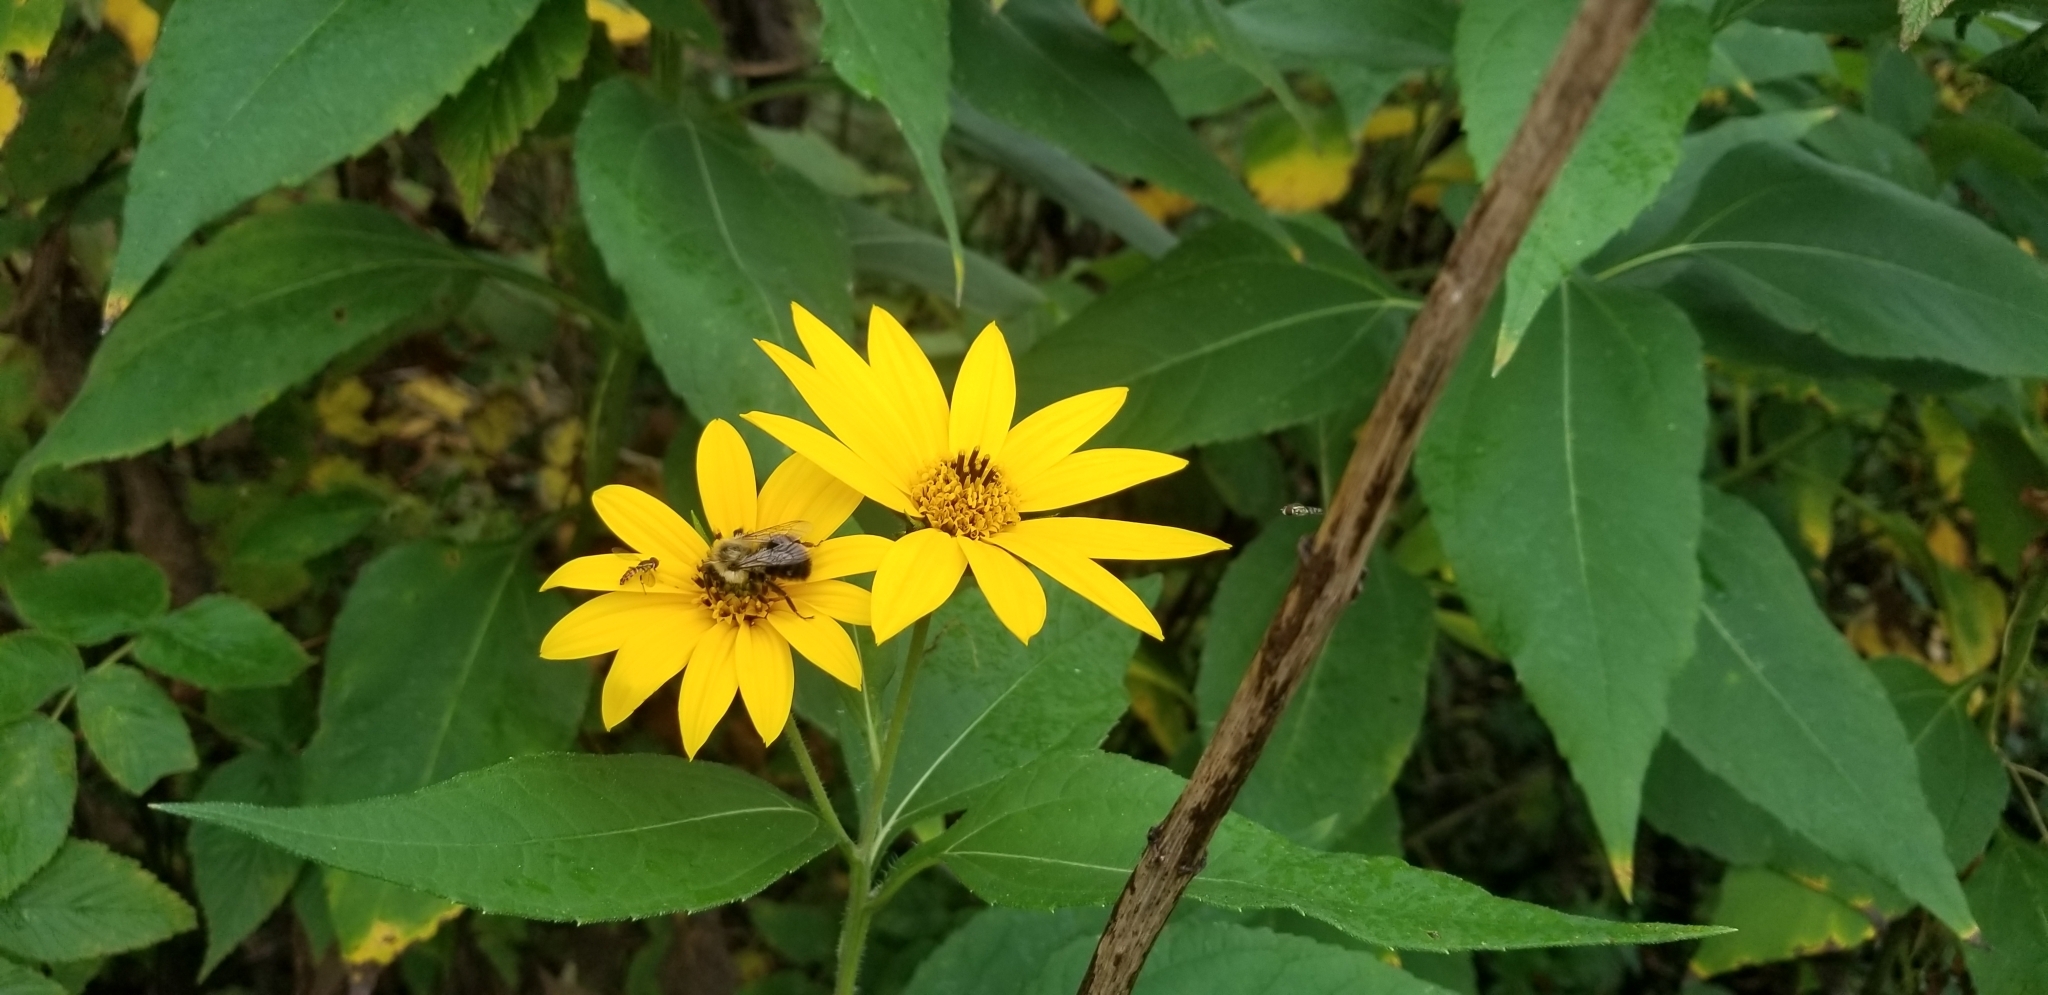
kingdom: Animalia
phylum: Arthropoda
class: Insecta
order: Hymenoptera
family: Apidae
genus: Bombus
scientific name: Bombus impatiens
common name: Common eastern bumble bee
